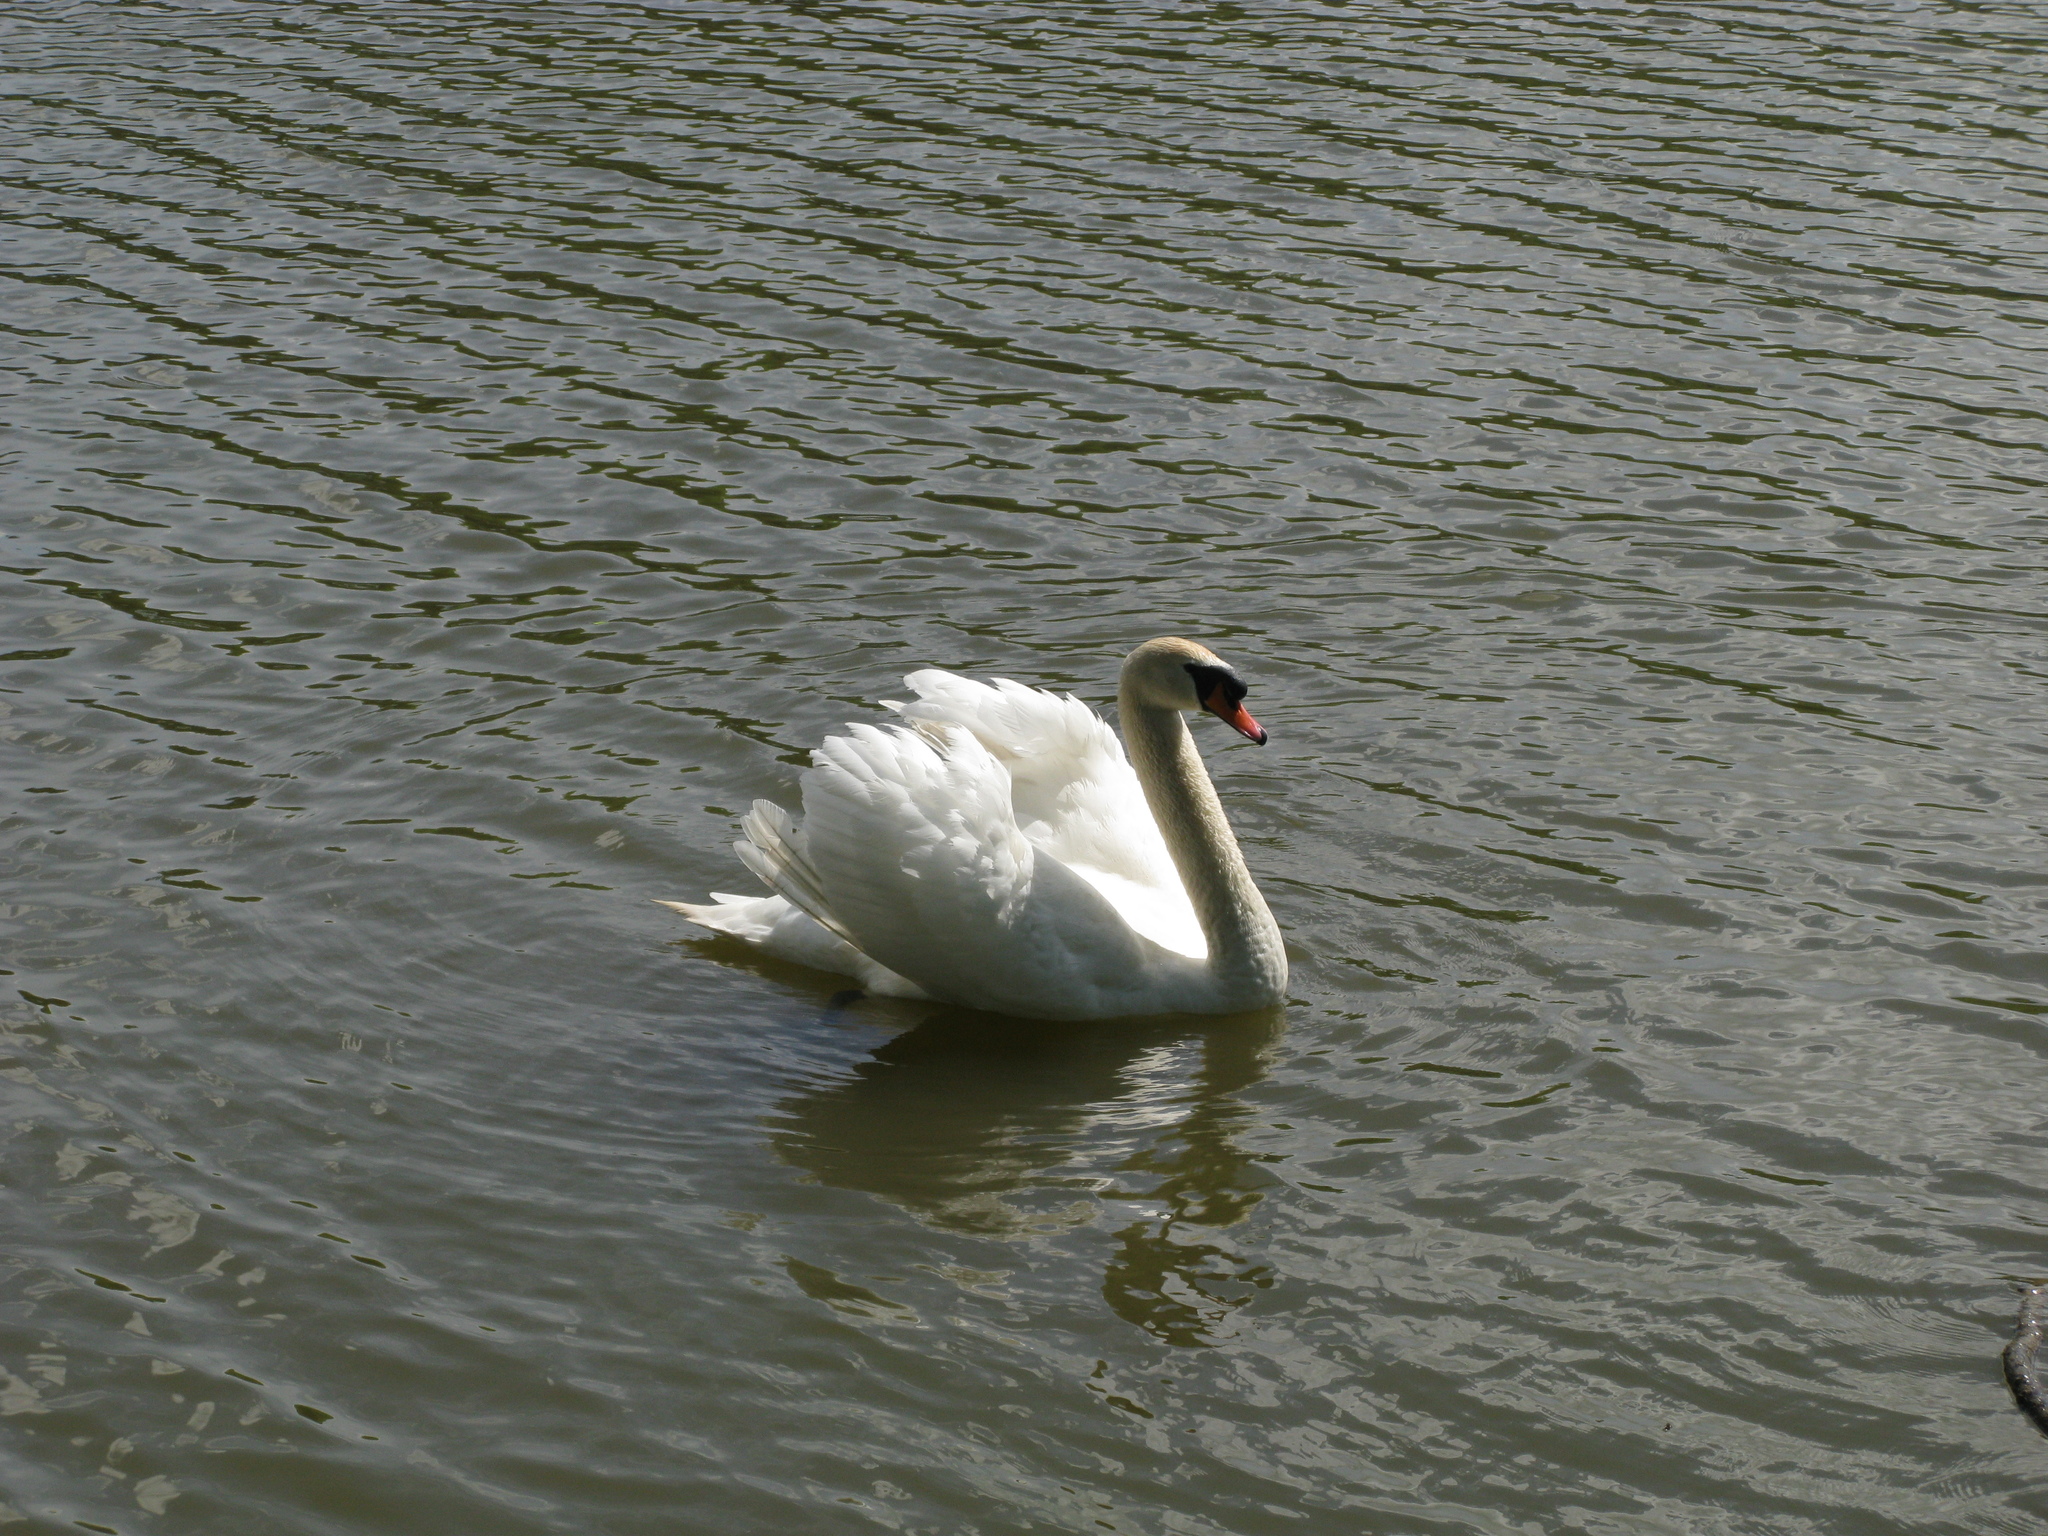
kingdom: Animalia
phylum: Chordata
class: Aves
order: Anseriformes
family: Anatidae
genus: Cygnus
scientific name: Cygnus olor
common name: Mute swan
